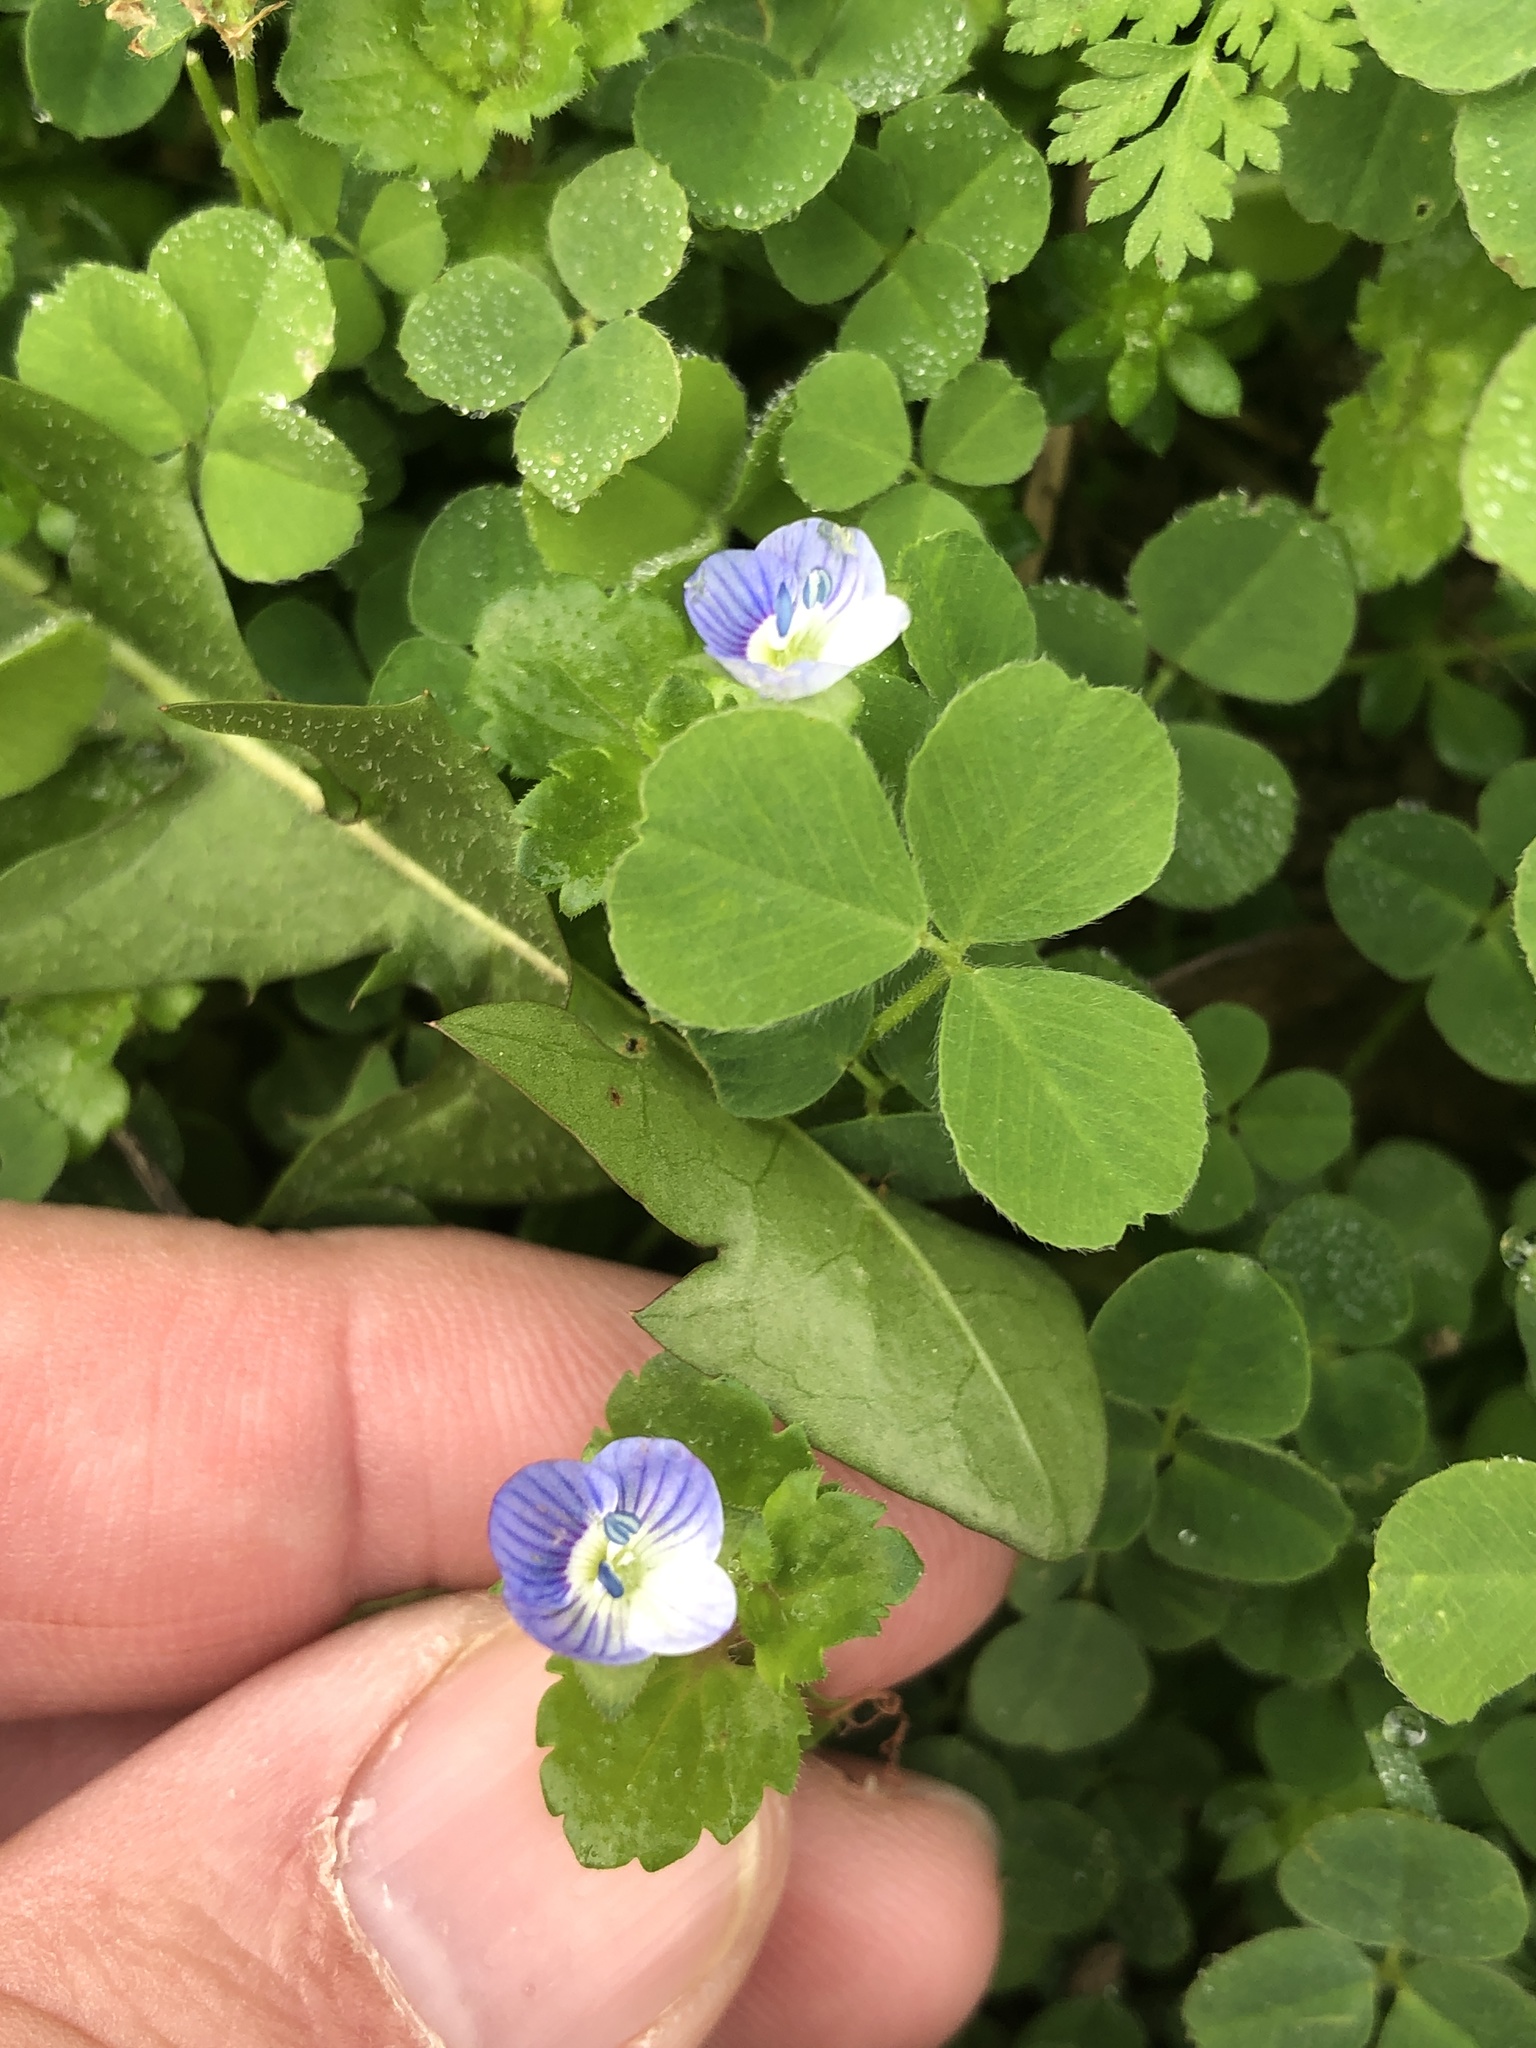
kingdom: Plantae
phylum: Tracheophyta
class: Magnoliopsida
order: Lamiales
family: Plantaginaceae
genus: Veronica
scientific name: Veronica persica
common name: Common field-speedwell
